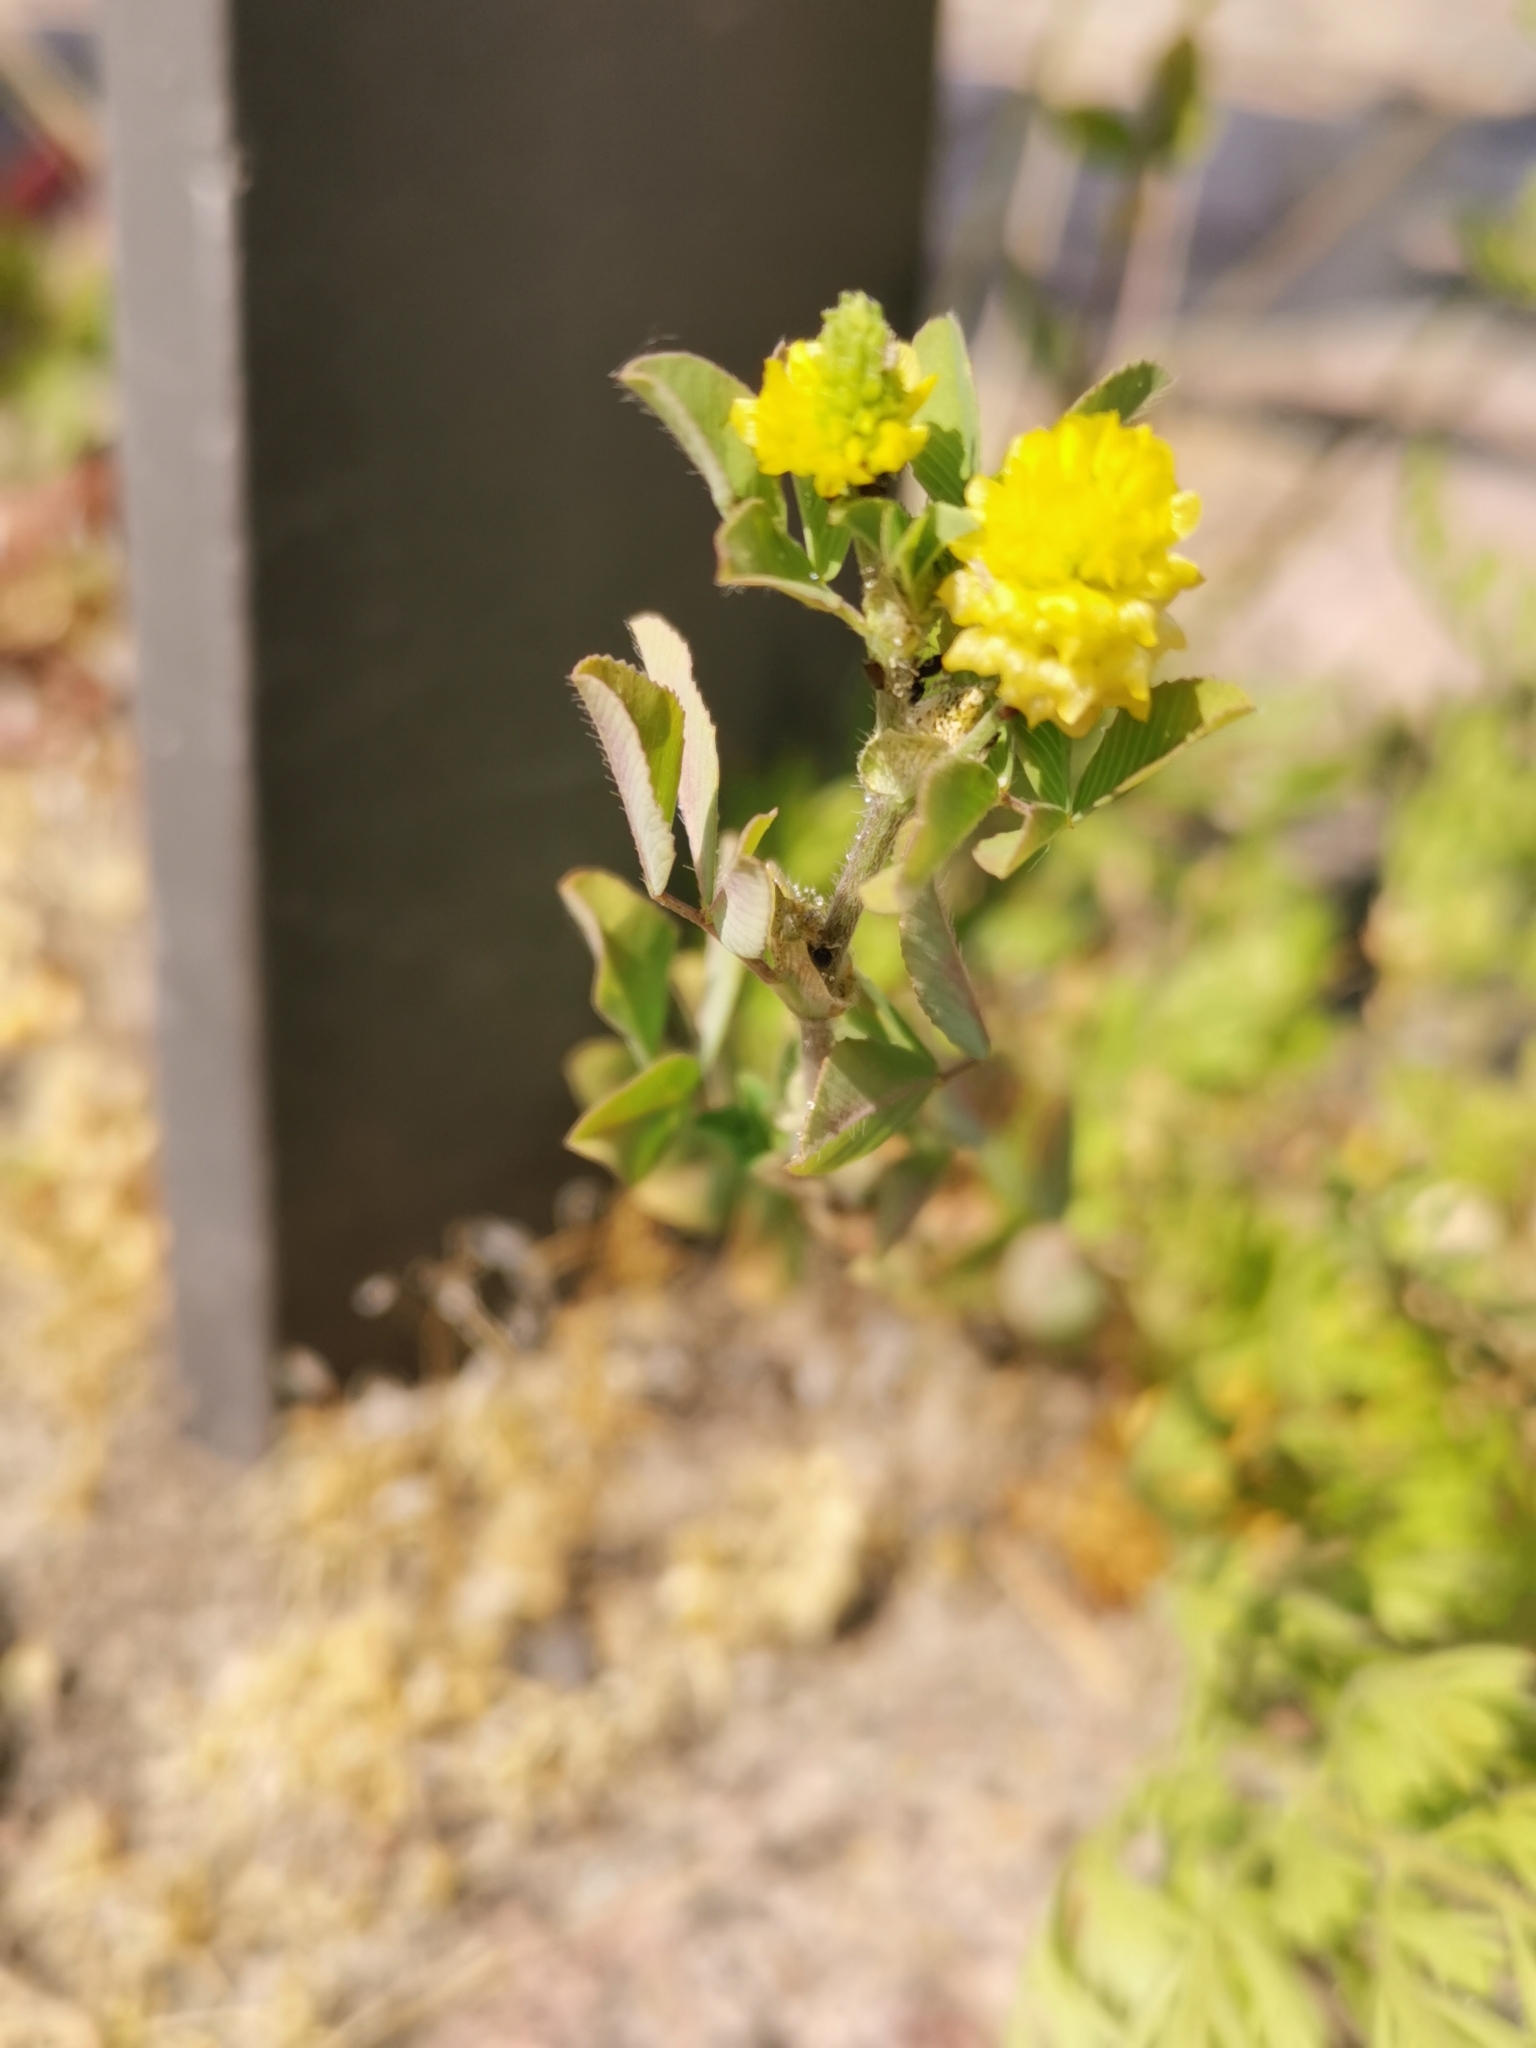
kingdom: Plantae
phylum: Tracheophyta
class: Magnoliopsida
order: Fabales
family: Fabaceae
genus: Trifolium
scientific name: Trifolium campestre
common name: Field clover
